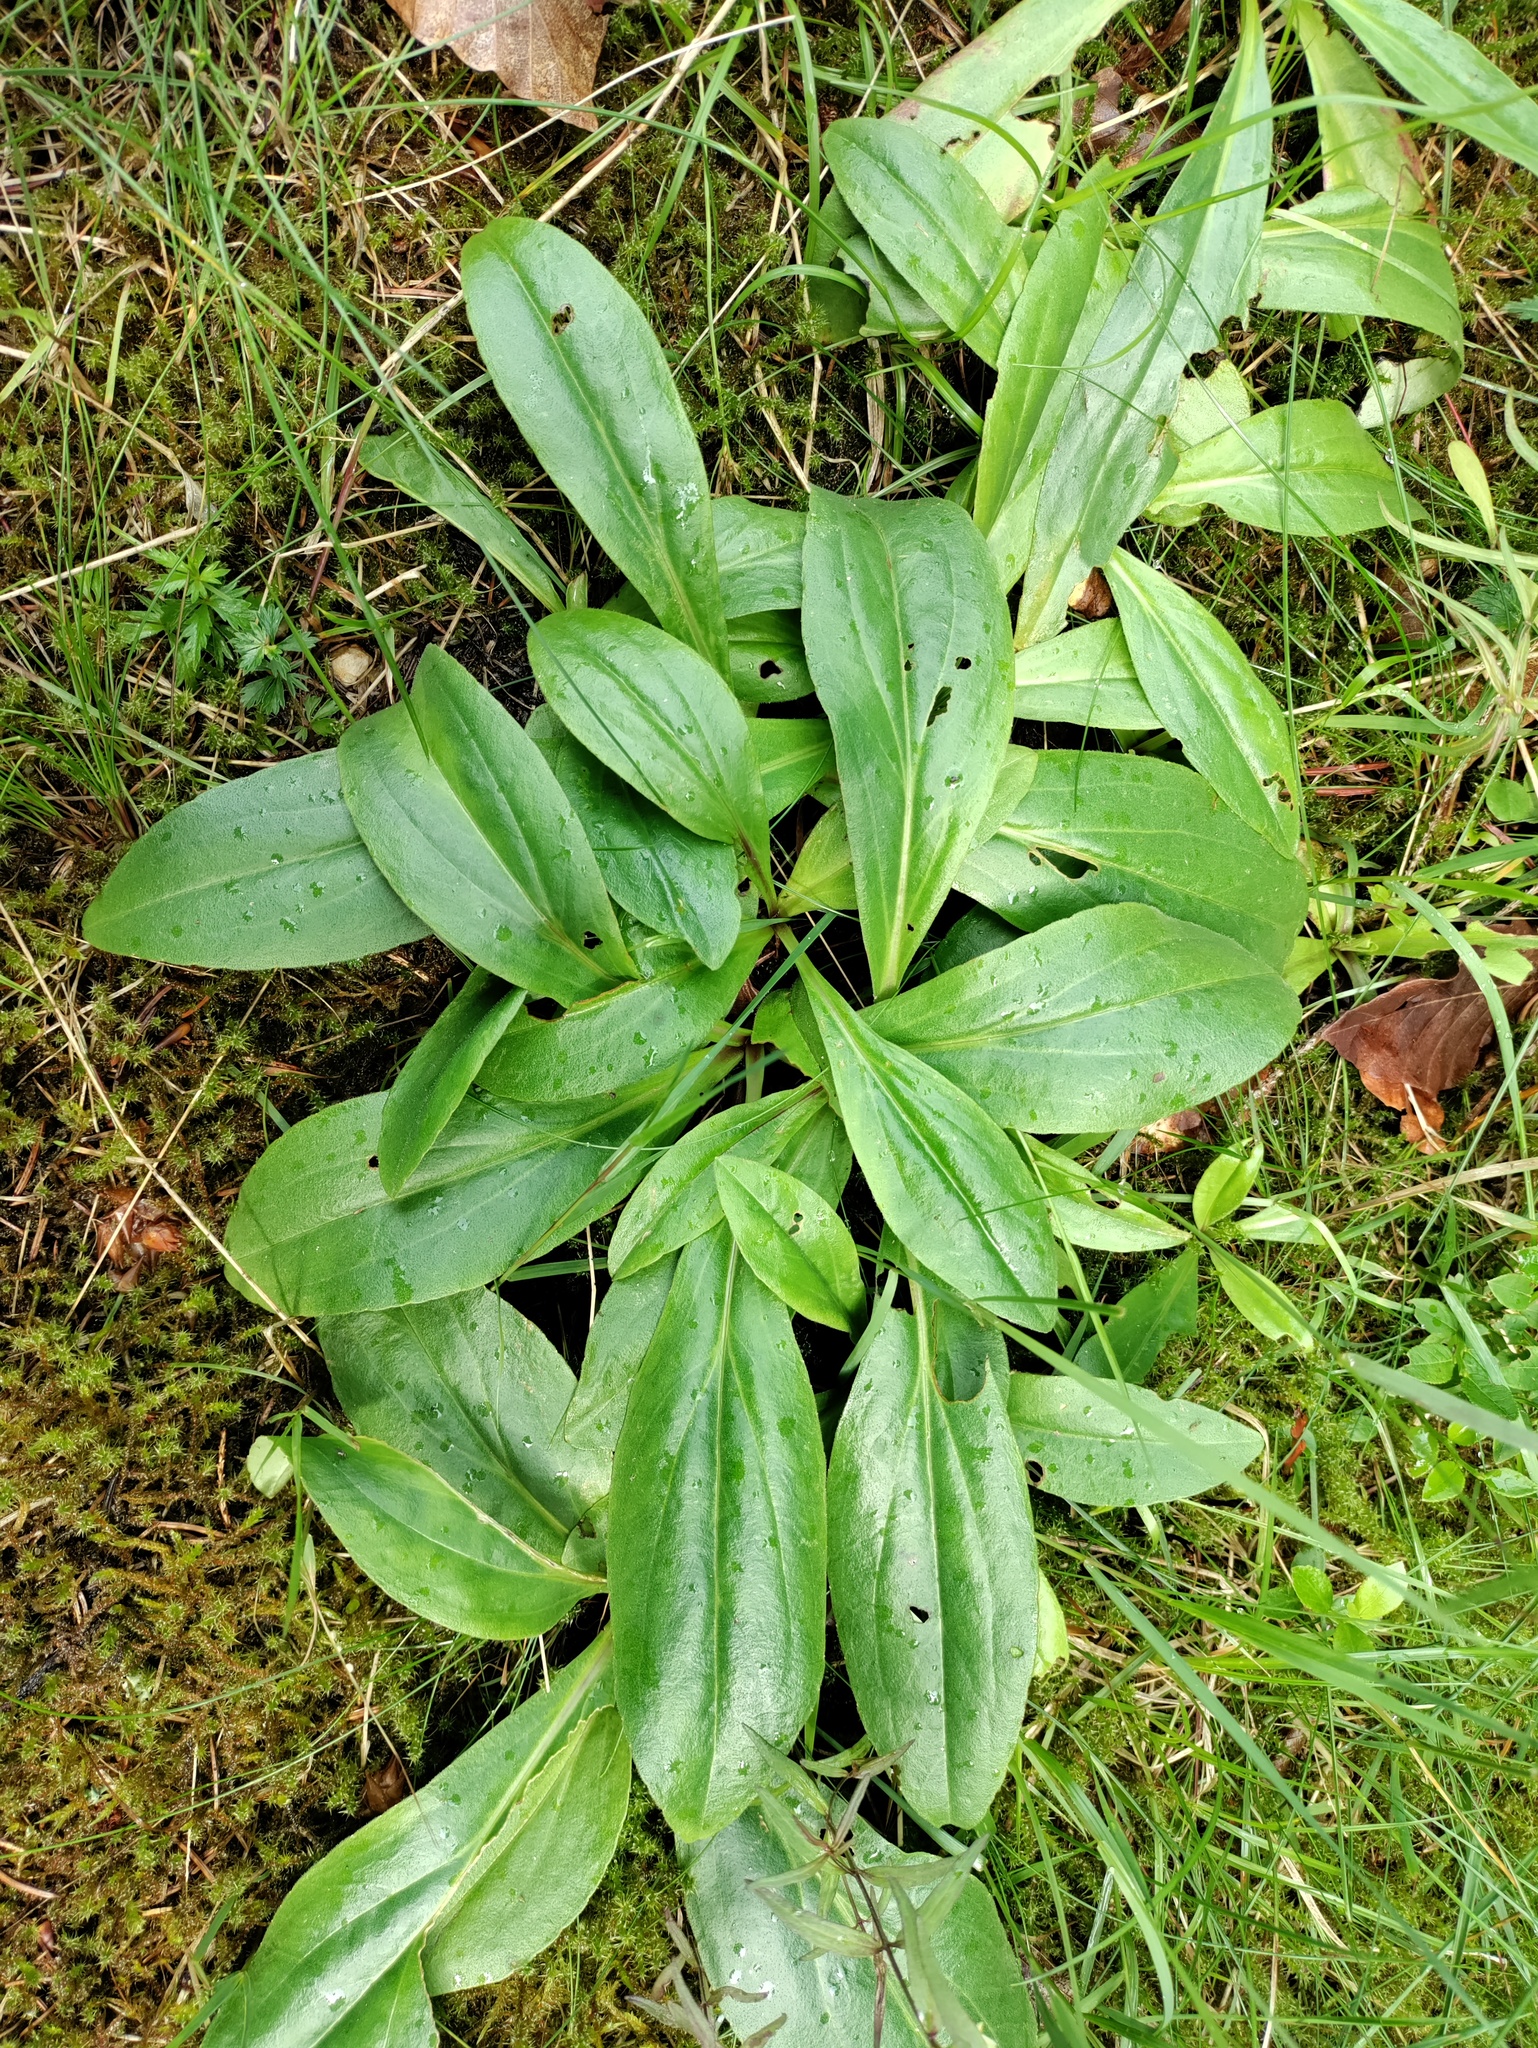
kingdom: Plantae
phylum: Tracheophyta
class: Magnoliopsida
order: Asterales
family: Asteraceae
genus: Arnica
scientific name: Arnica montana
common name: Leopard's bane
